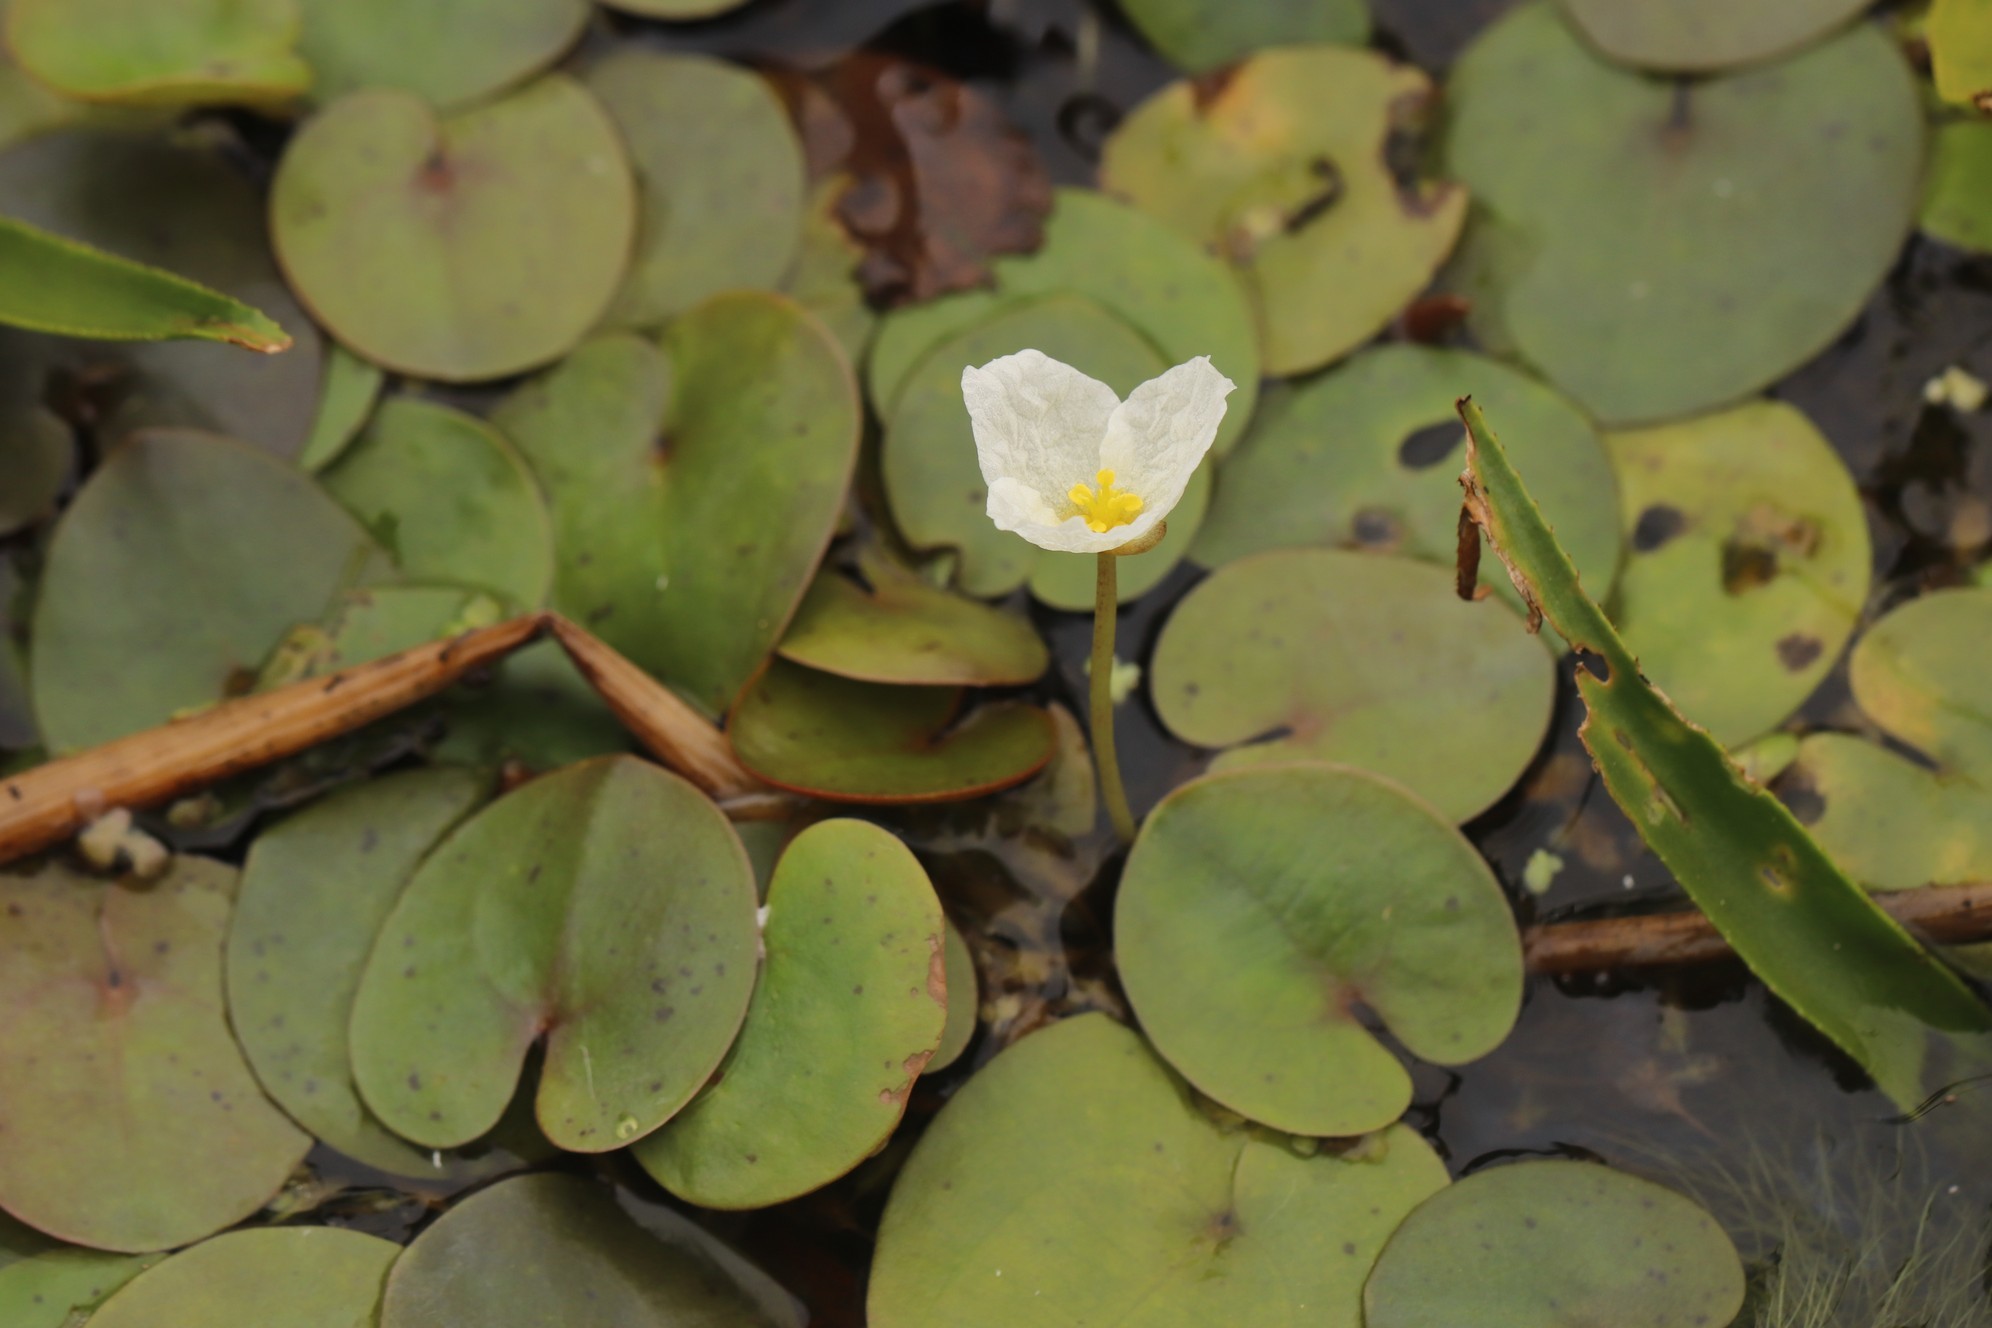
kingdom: Plantae
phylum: Tracheophyta
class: Liliopsida
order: Alismatales
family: Hydrocharitaceae
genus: Hydrocharis
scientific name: Hydrocharis morsus-ranae
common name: Frogbit
